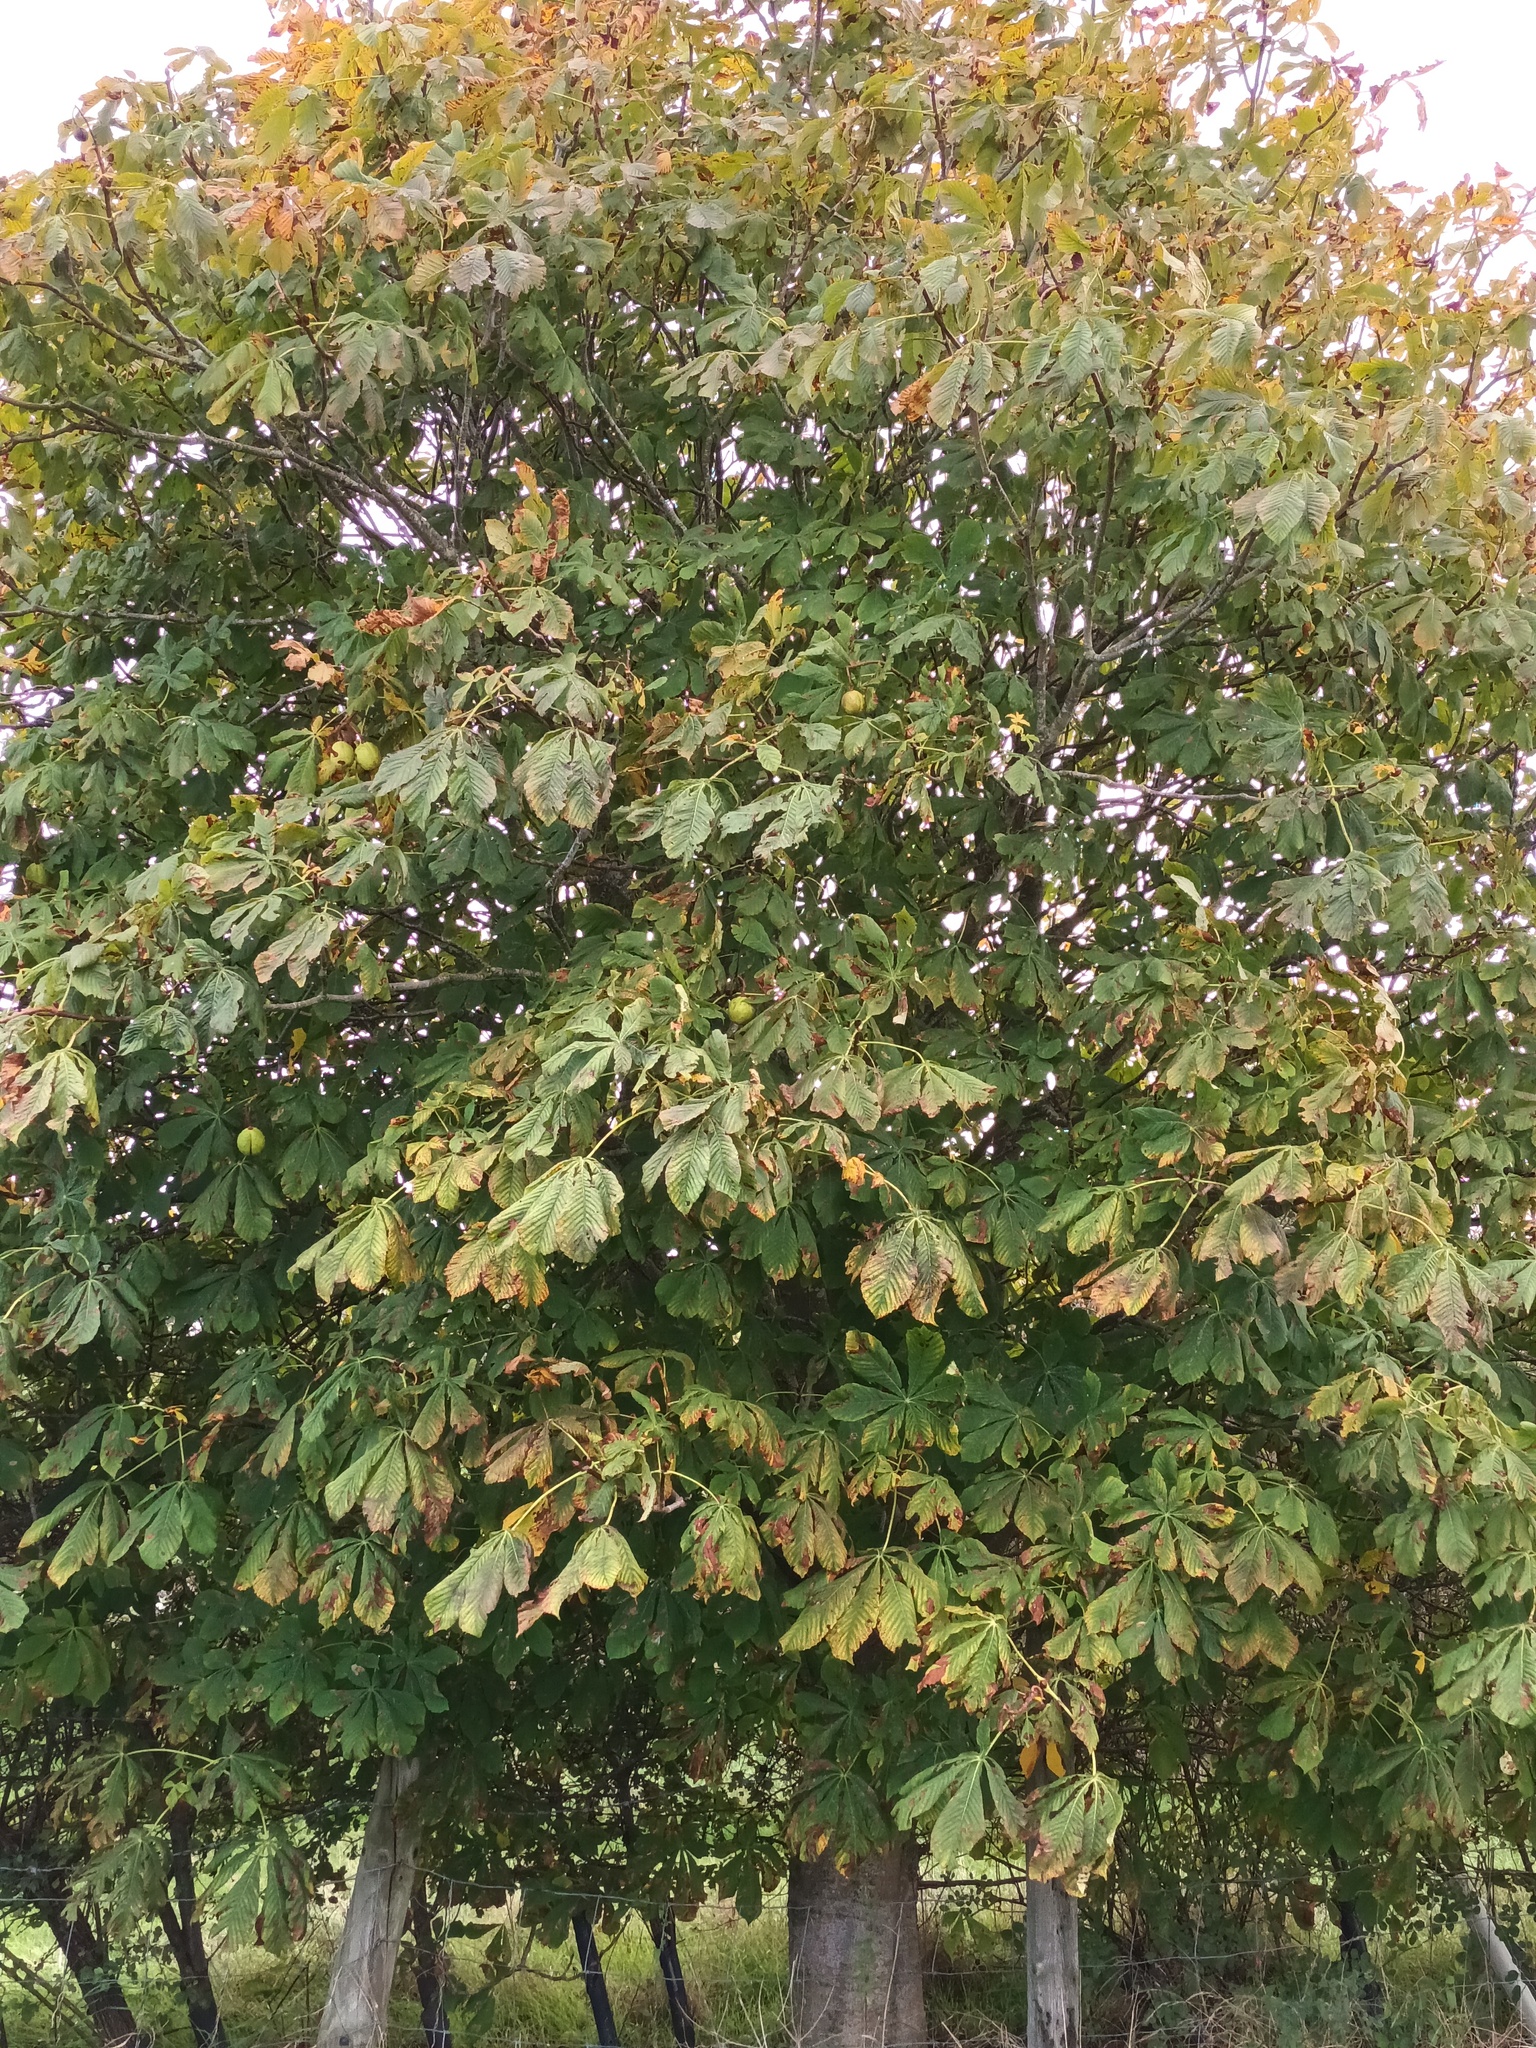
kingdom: Plantae
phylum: Tracheophyta
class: Magnoliopsida
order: Sapindales
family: Sapindaceae
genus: Aesculus
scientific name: Aesculus hippocastanum
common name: Horse-chestnut
